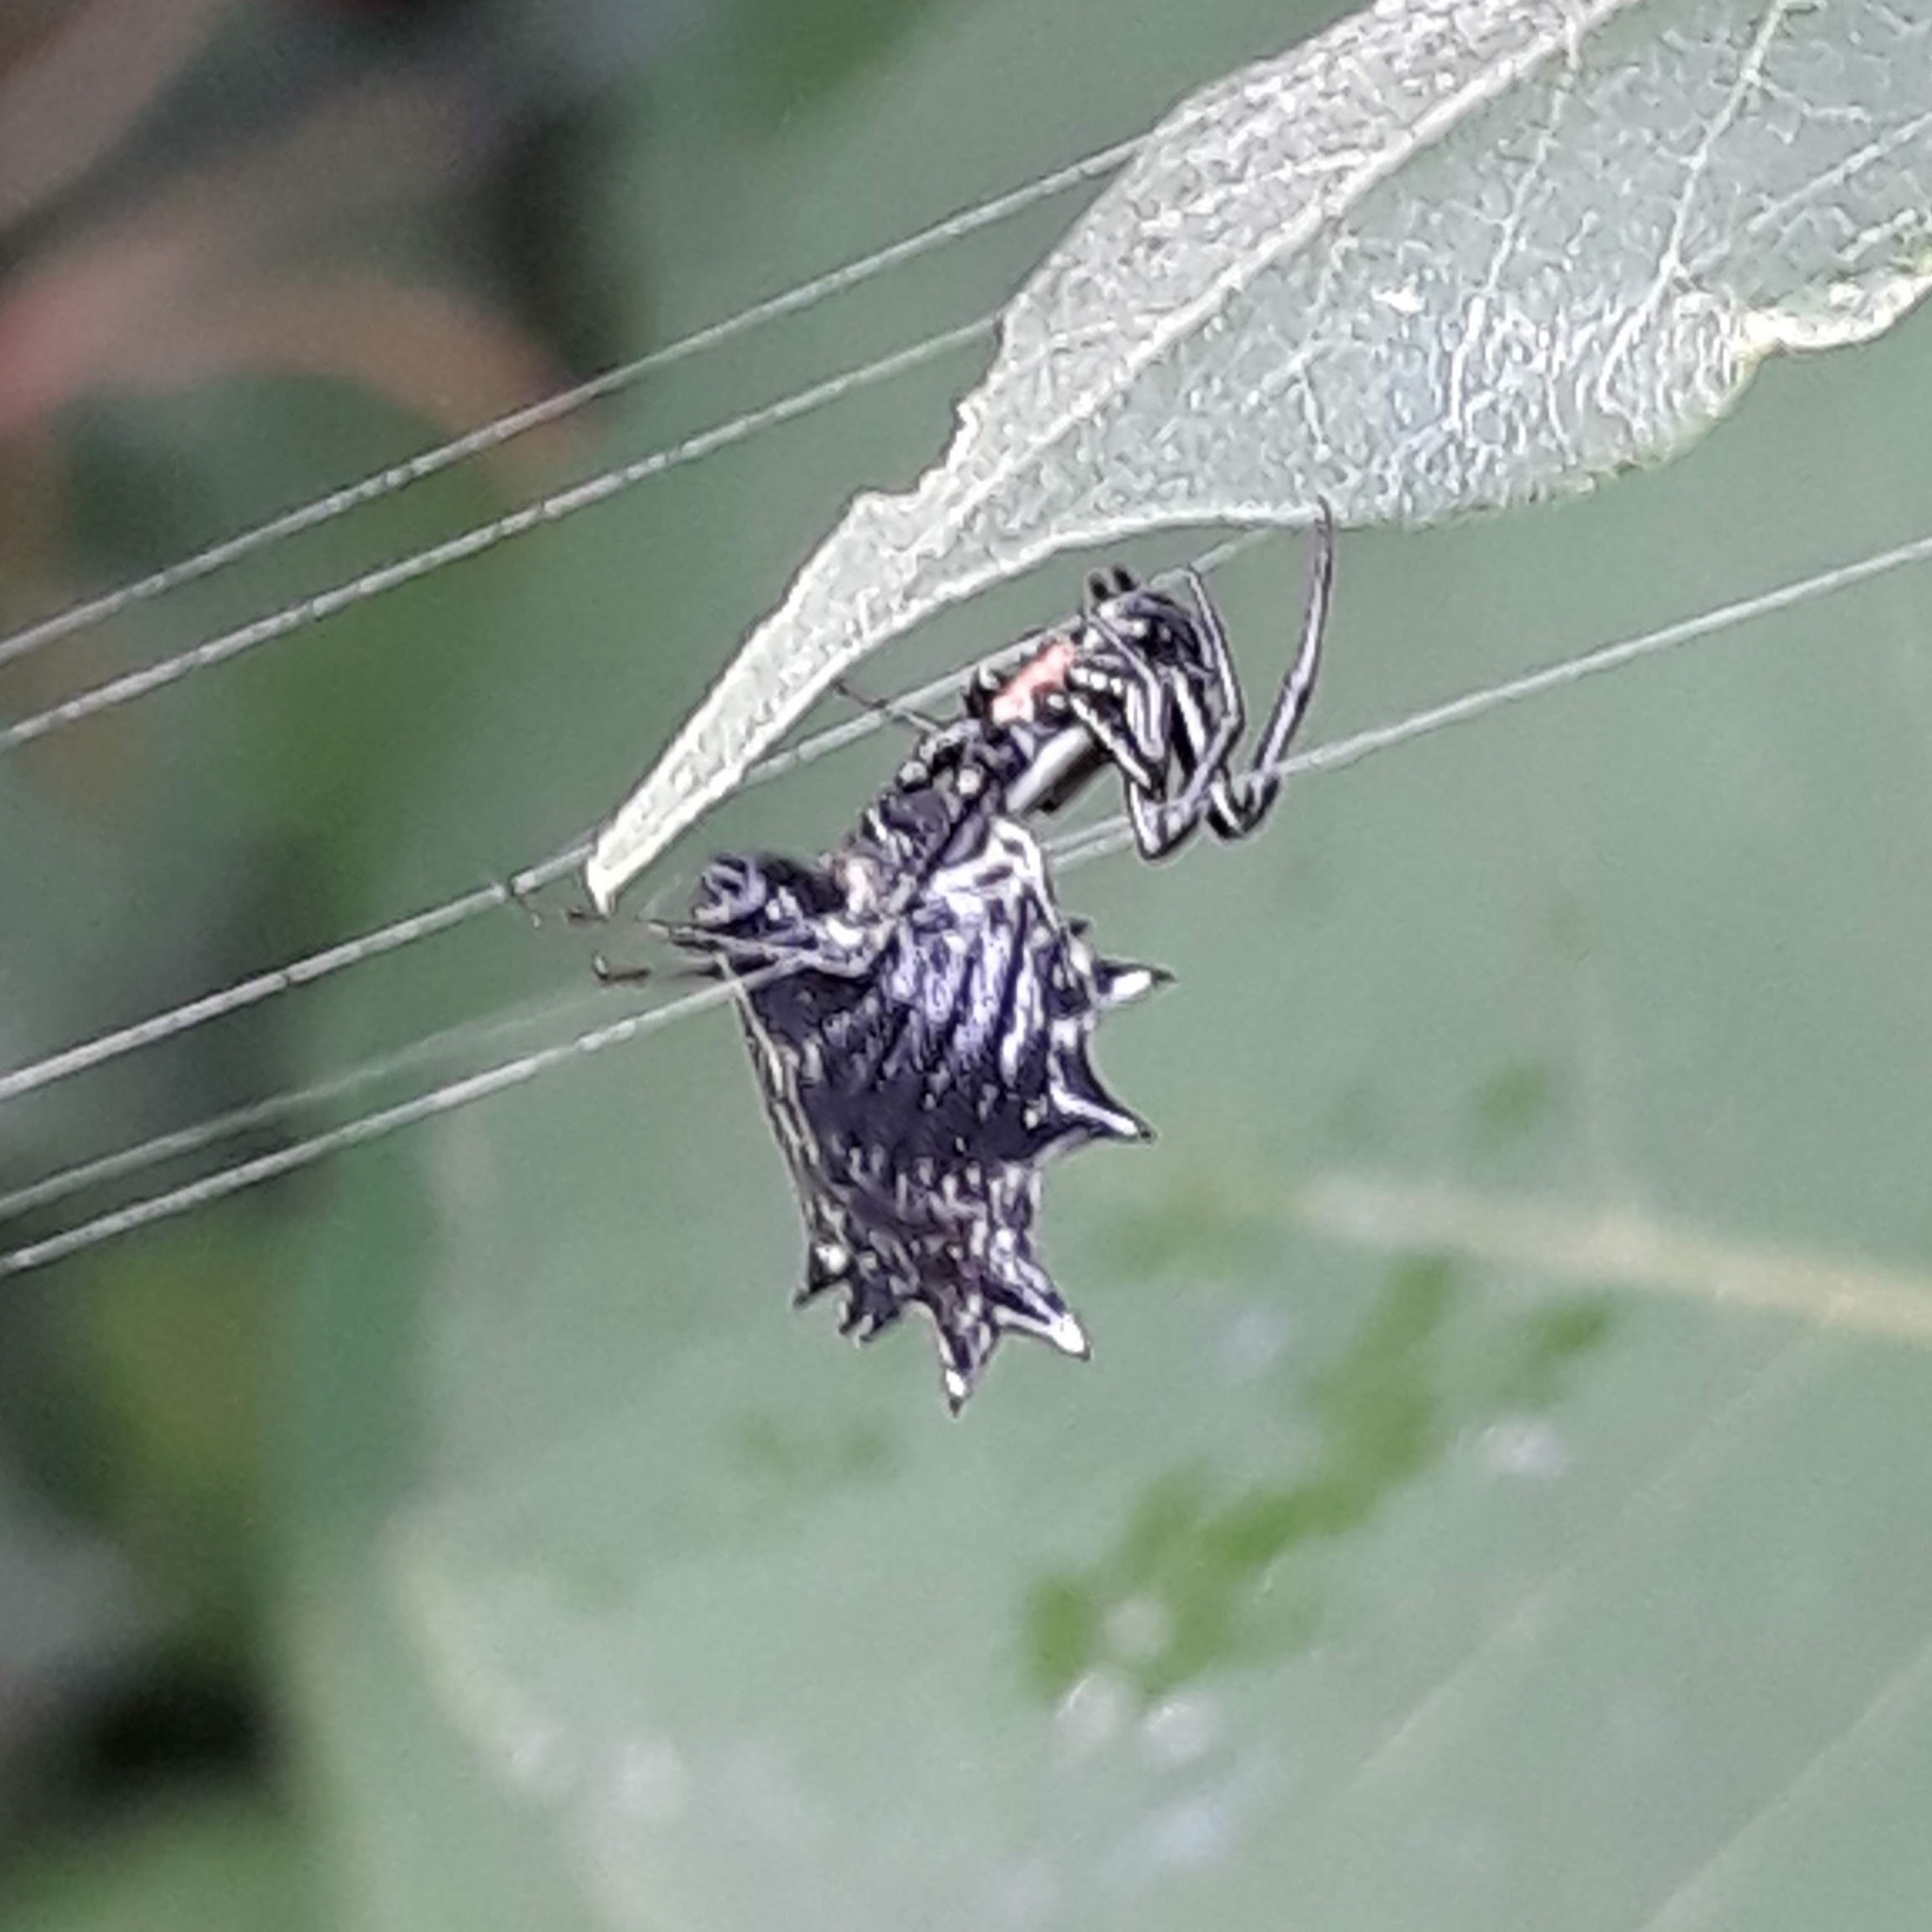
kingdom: Animalia
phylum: Arthropoda
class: Arachnida
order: Araneae
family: Araneidae
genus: Micrathena
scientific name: Micrathena gracilis
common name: Orb weavers
